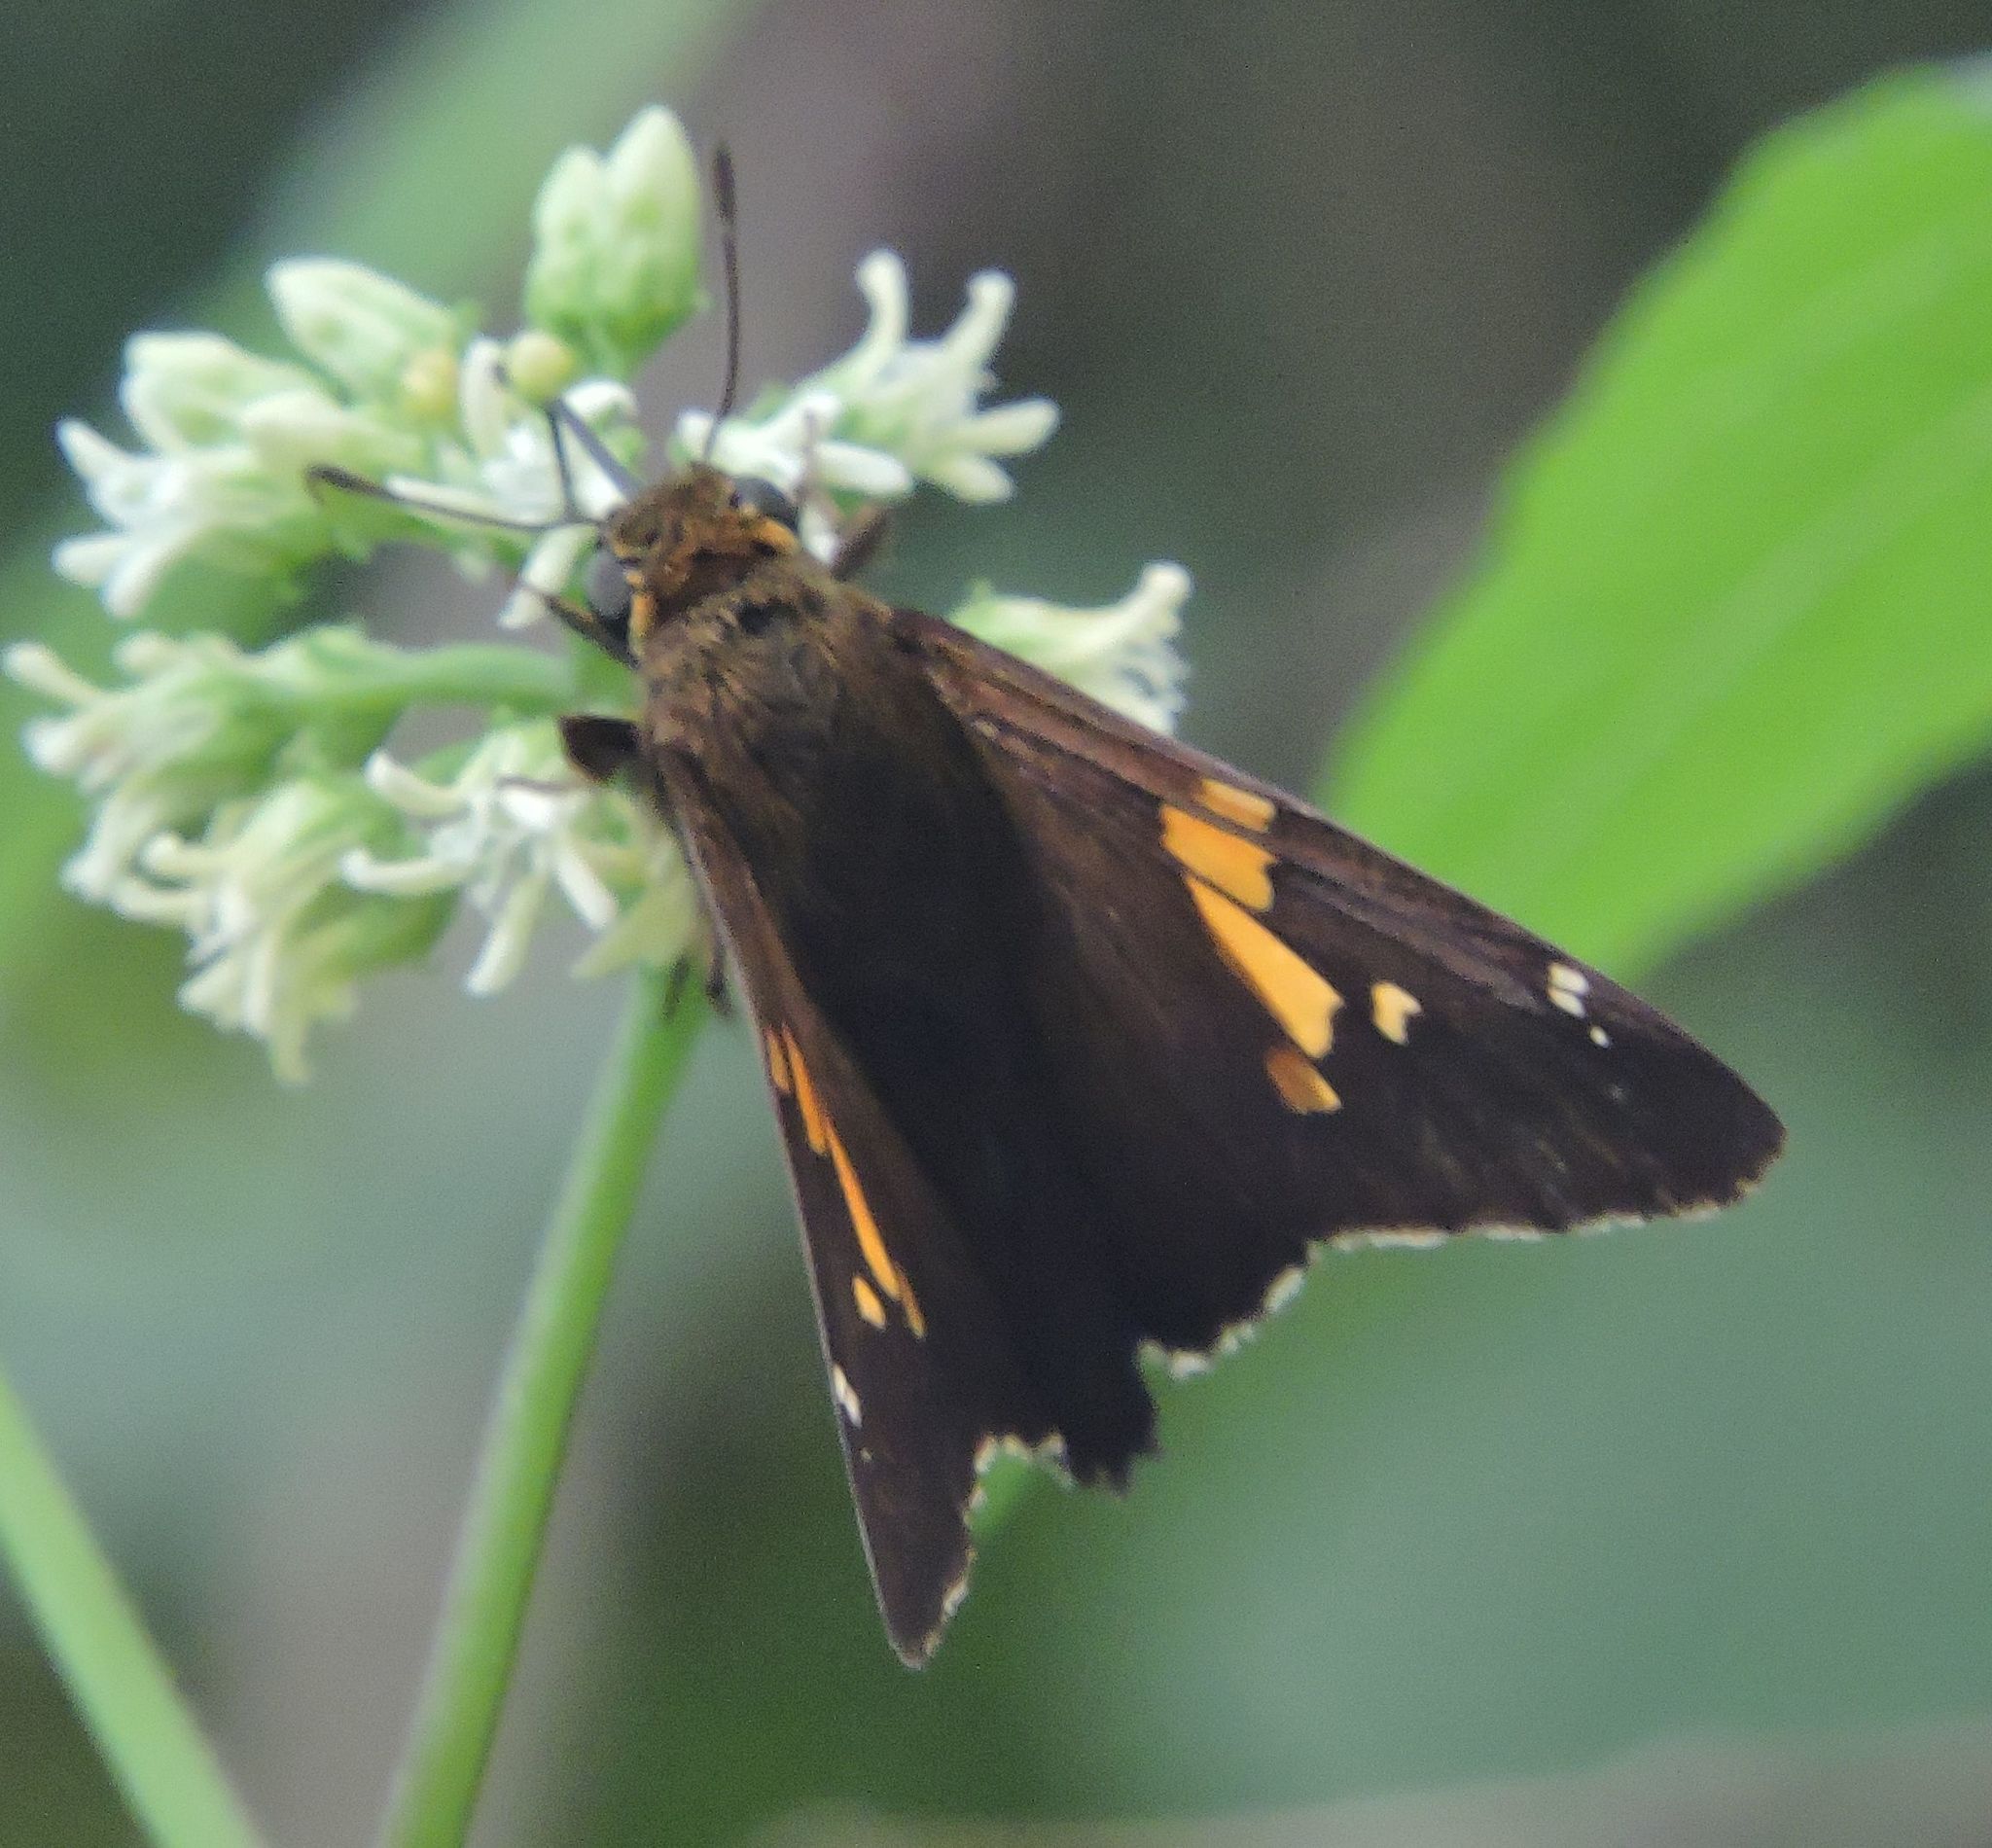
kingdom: Animalia
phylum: Arthropoda
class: Insecta
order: Lepidoptera
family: Hesperiidae
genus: Epargyreus
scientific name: Epargyreus clarus
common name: Silver-spotted skipper
